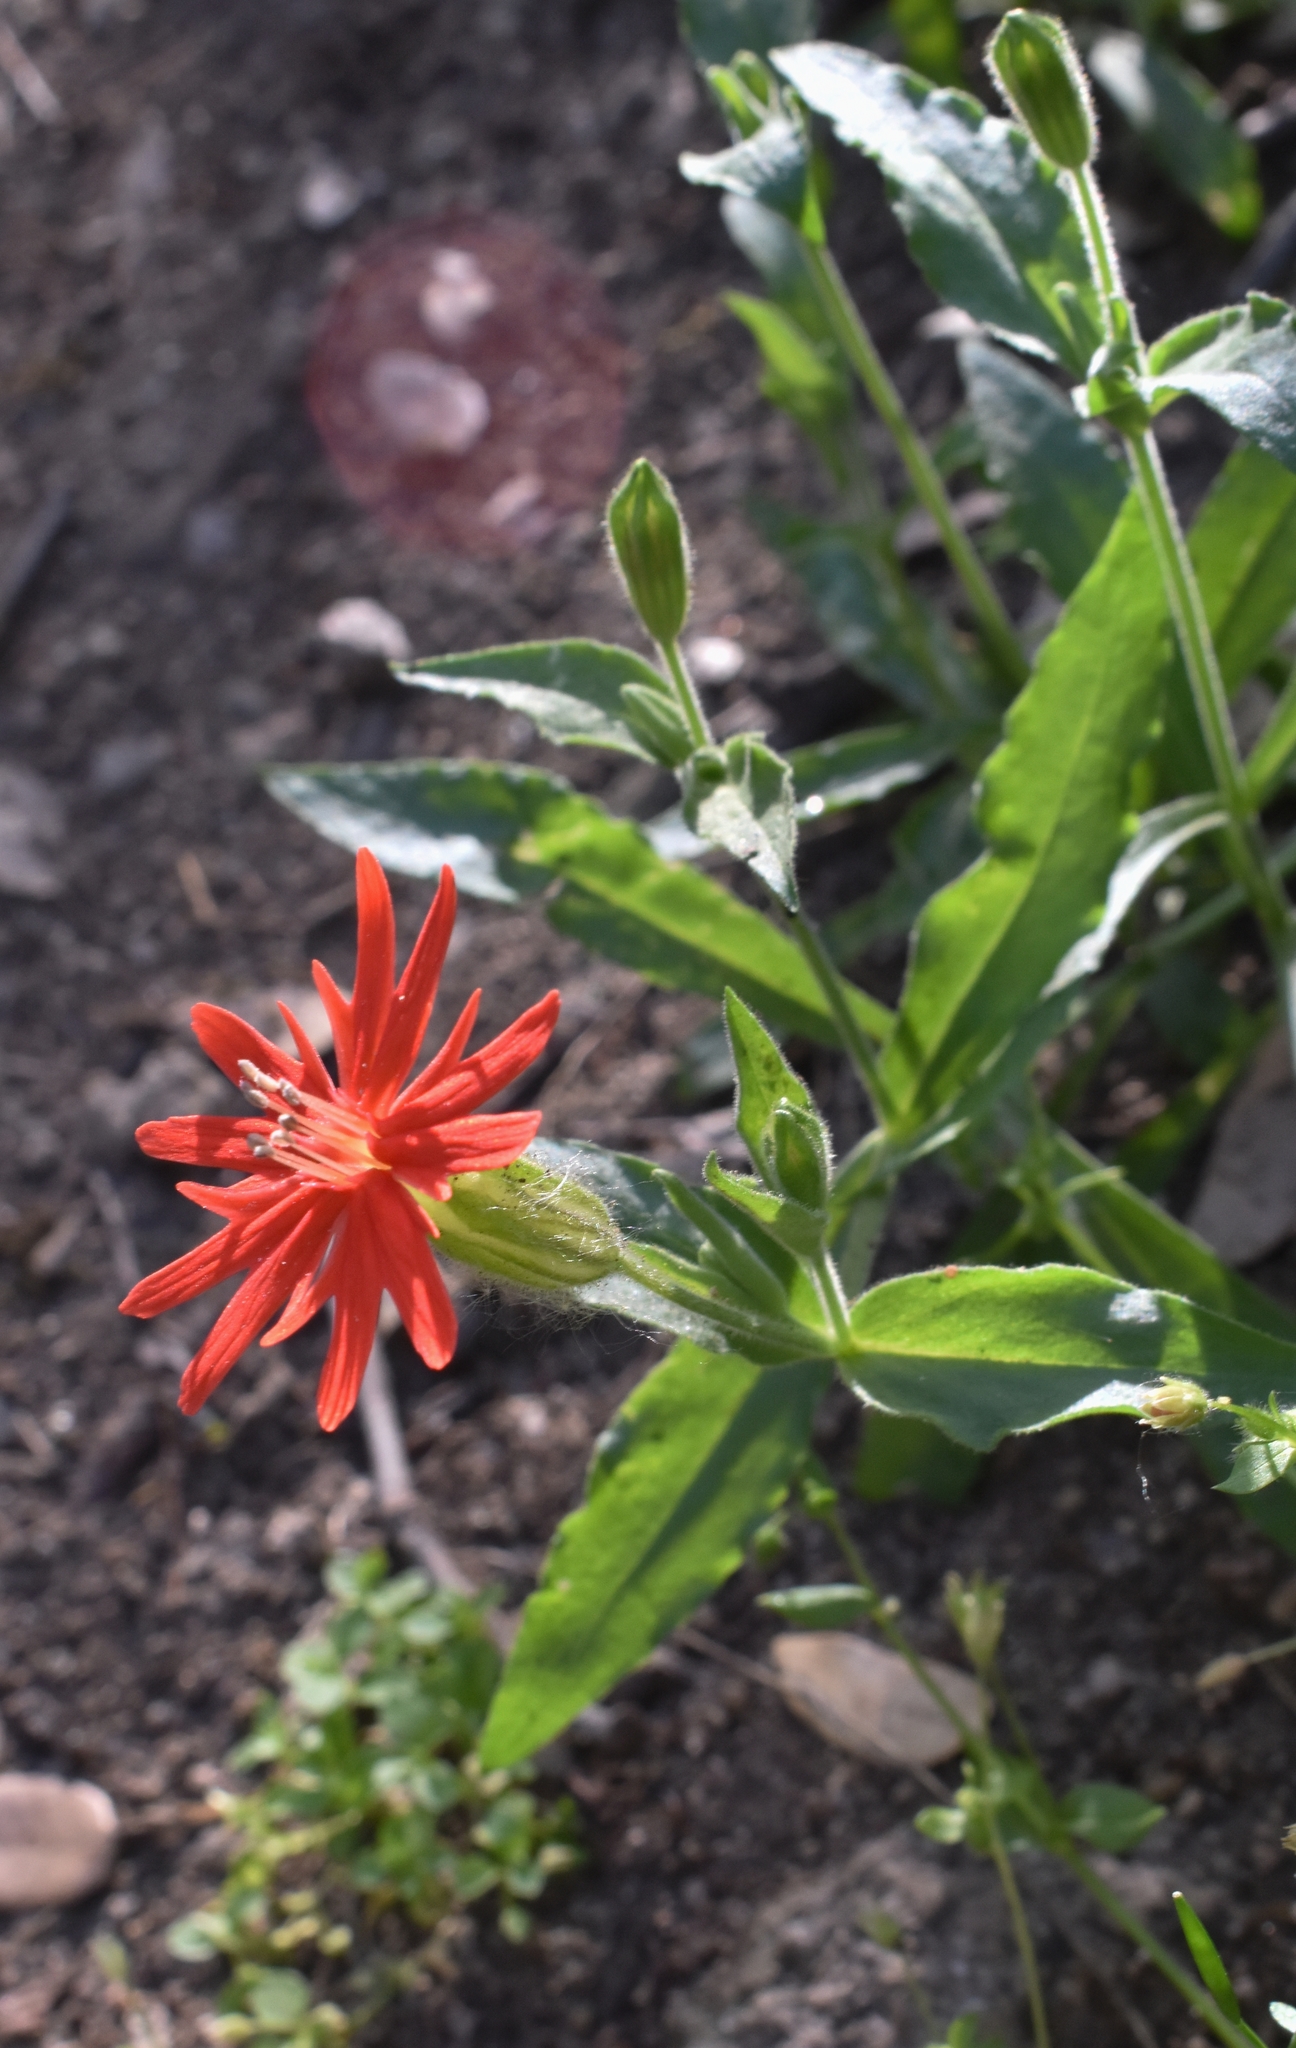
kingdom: Plantae
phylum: Tracheophyta
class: Magnoliopsida
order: Caryophyllales
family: Caryophyllaceae
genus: Silene
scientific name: Silene laciniata
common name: Indian-pink
